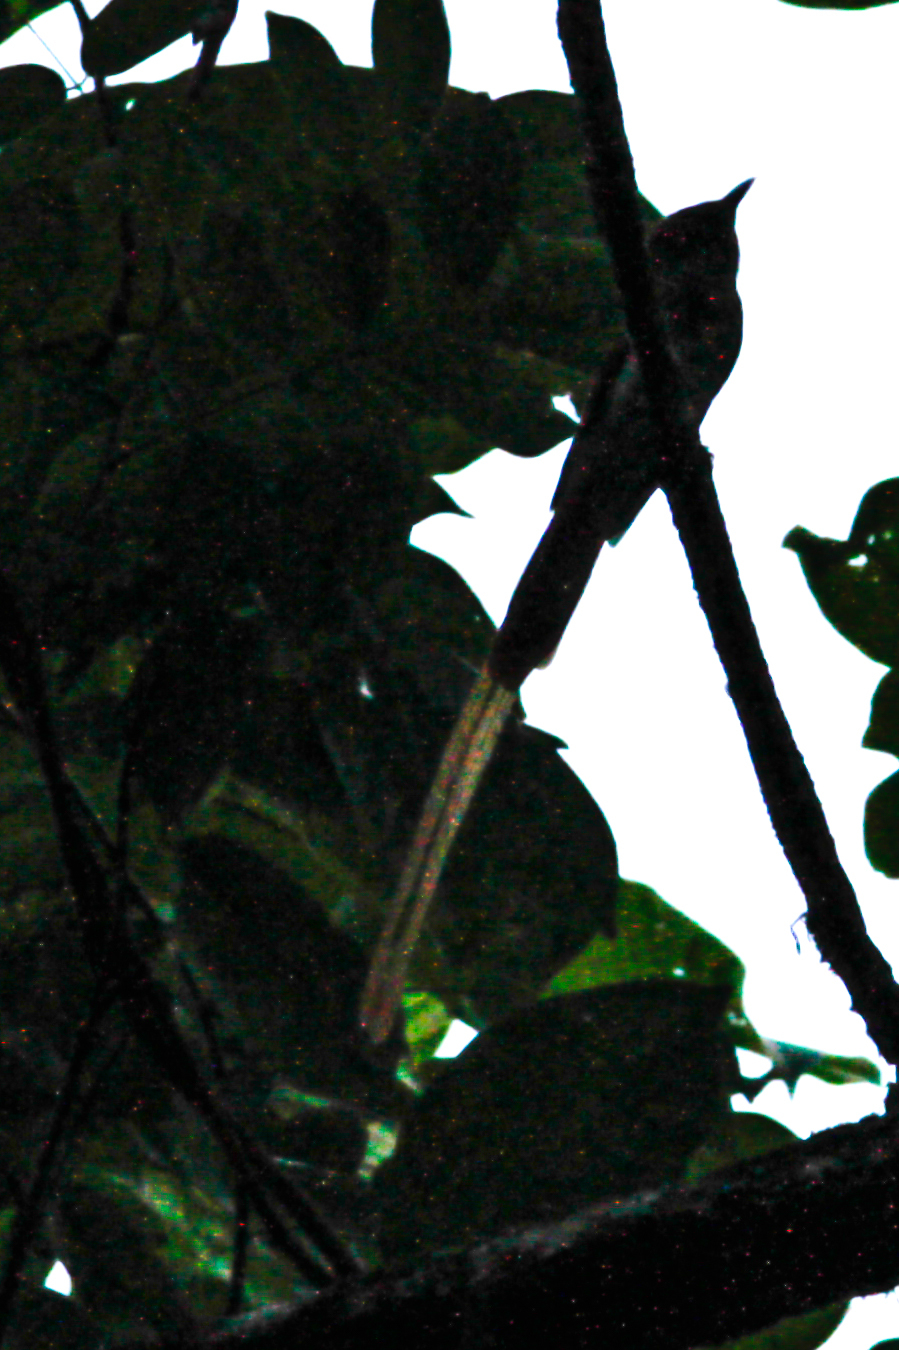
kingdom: Animalia
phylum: Chordata
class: Aves
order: Passeriformes
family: Monarchidae
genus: Terpsiphone
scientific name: Terpsiphone paradisi
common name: Indian paradise flycatcher
